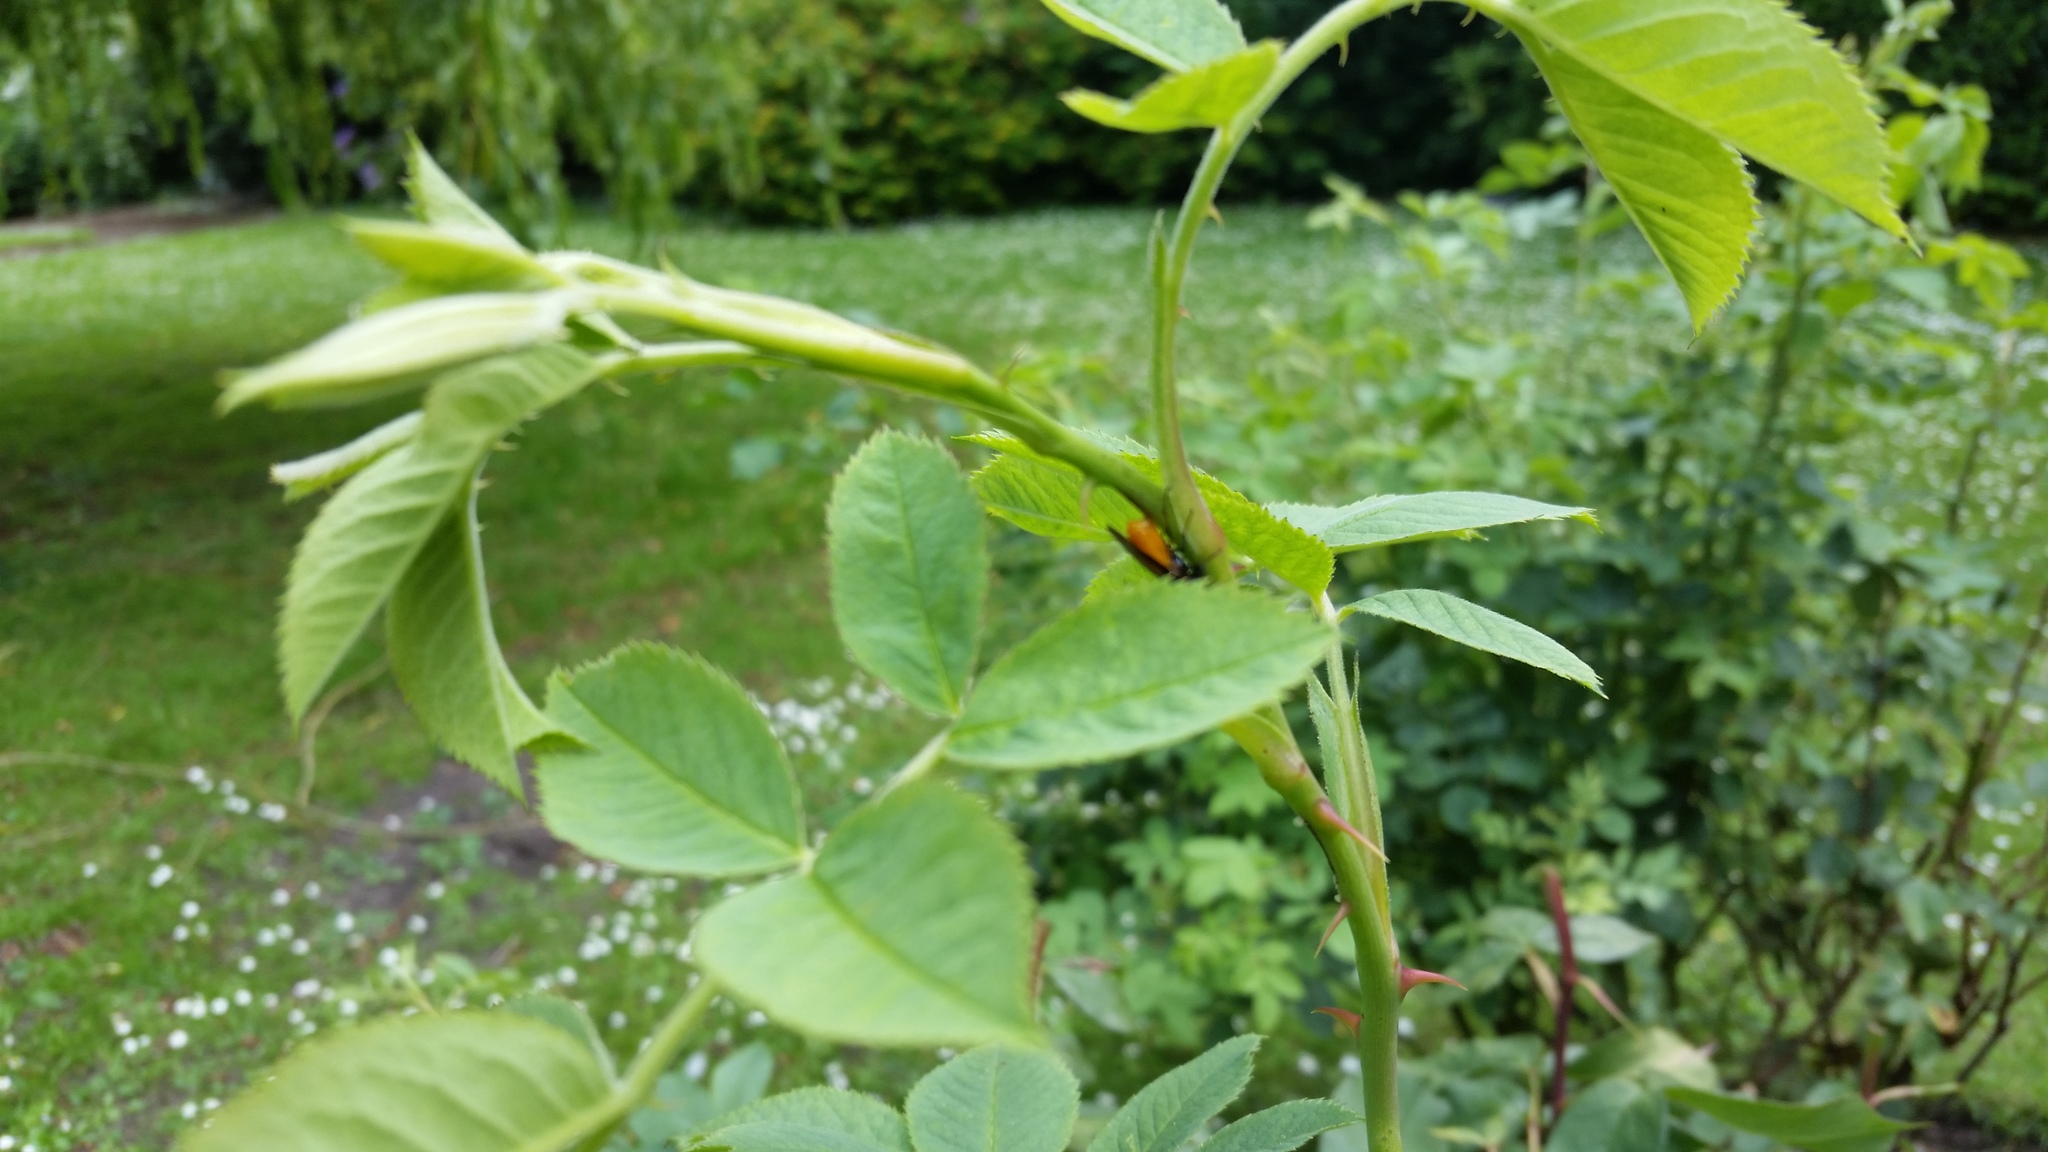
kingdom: Animalia
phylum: Arthropoda
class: Insecta
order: Hymenoptera
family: Argidae
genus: Arge
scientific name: Arge pagana
